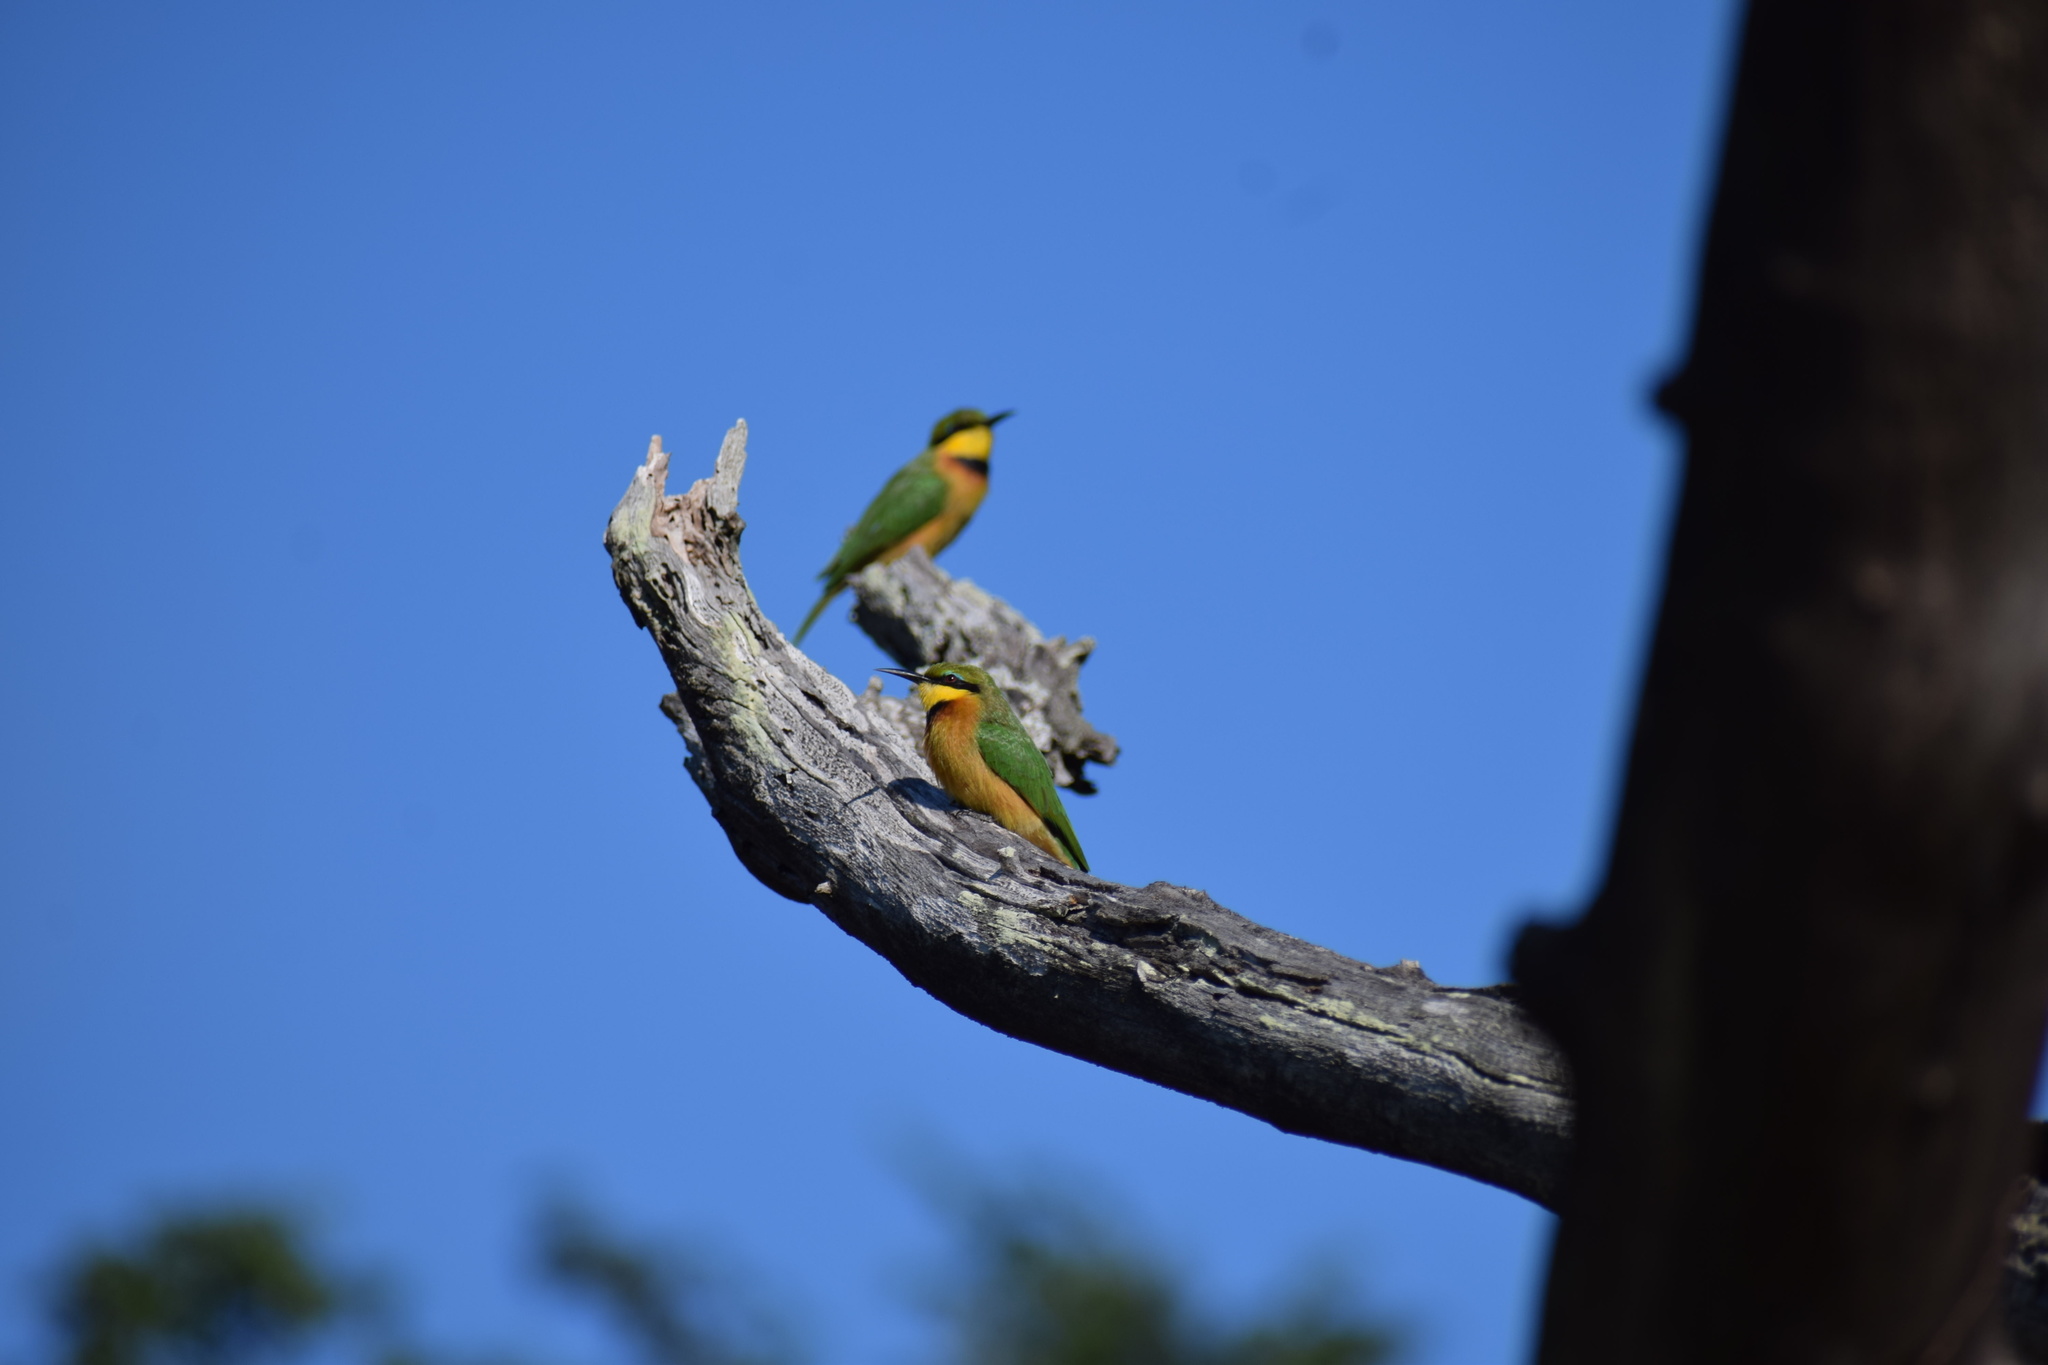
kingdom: Animalia
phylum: Chordata
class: Aves
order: Coraciiformes
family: Meropidae
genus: Merops
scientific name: Merops pusillus
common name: Little bee-eater
